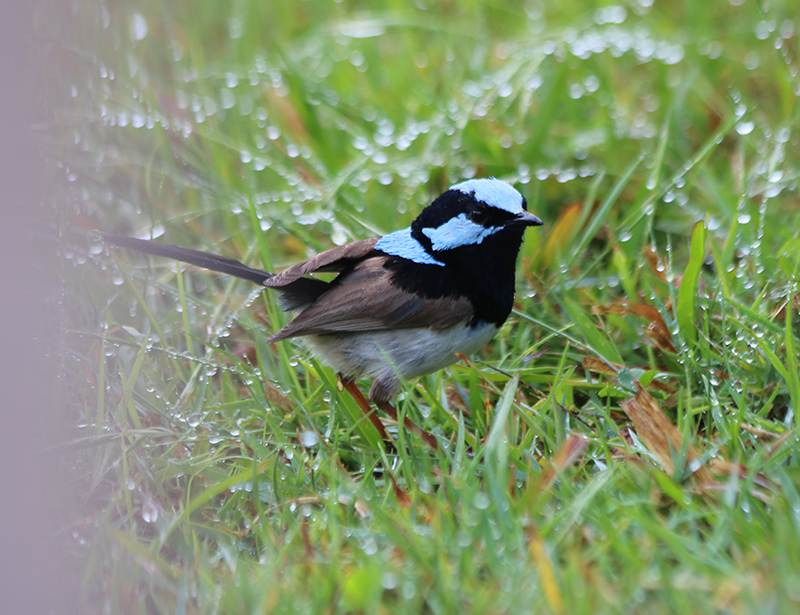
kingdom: Animalia
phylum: Chordata
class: Aves
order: Passeriformes
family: Maluridae
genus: Malurus
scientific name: Malurus cyaneus
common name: Superb fairywren
